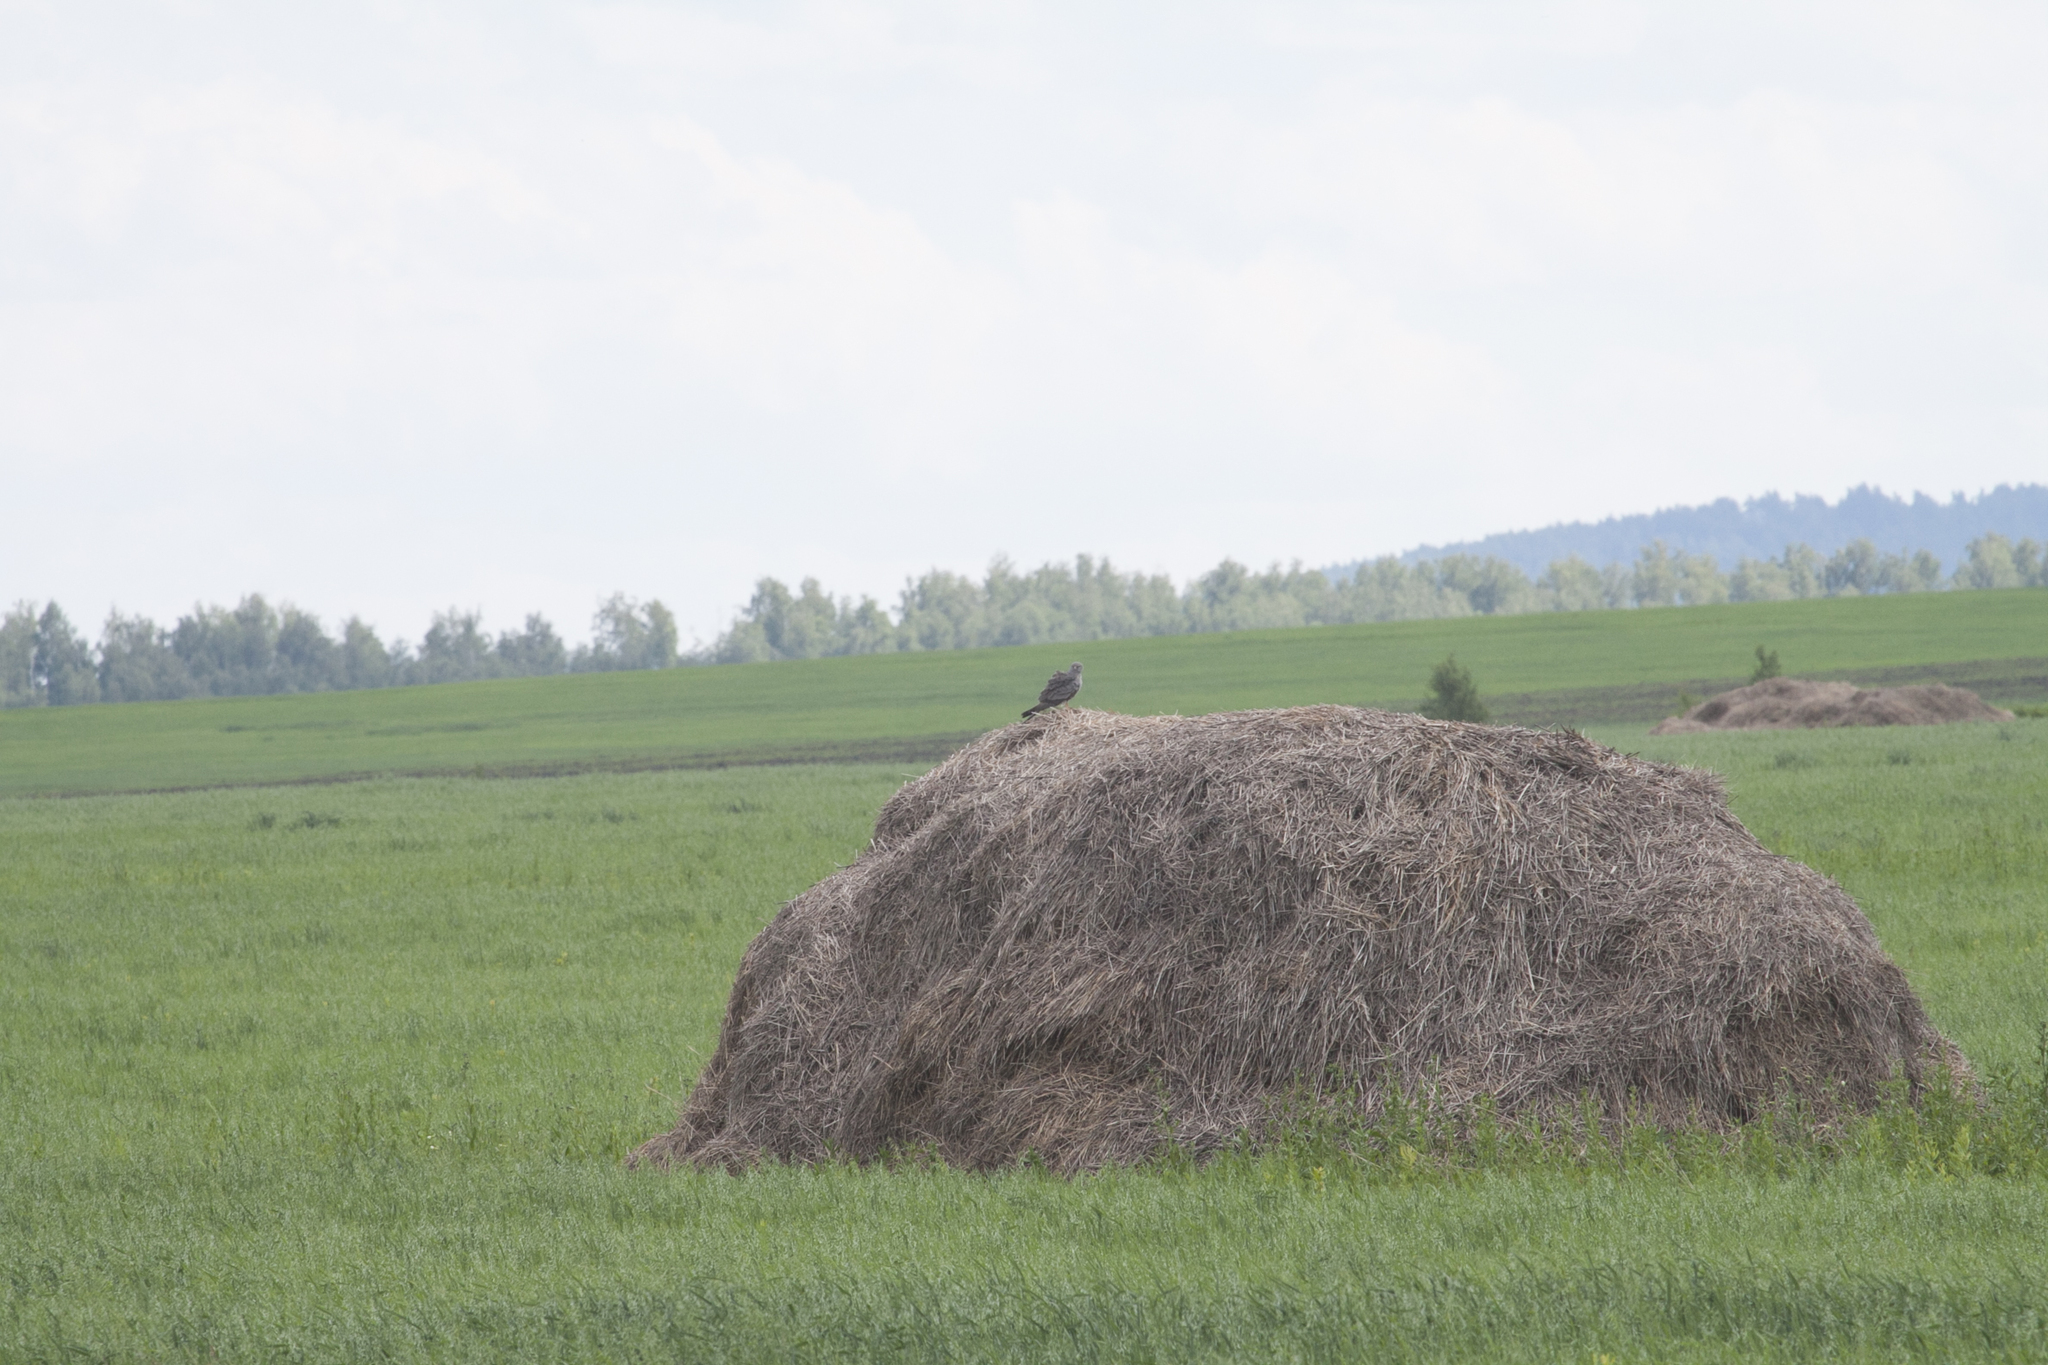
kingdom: Animalia
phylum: Chordata
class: Aves
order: Accipitriformes
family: Accipitridae
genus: Circus
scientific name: Circus cyaneus
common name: Hen harrier
